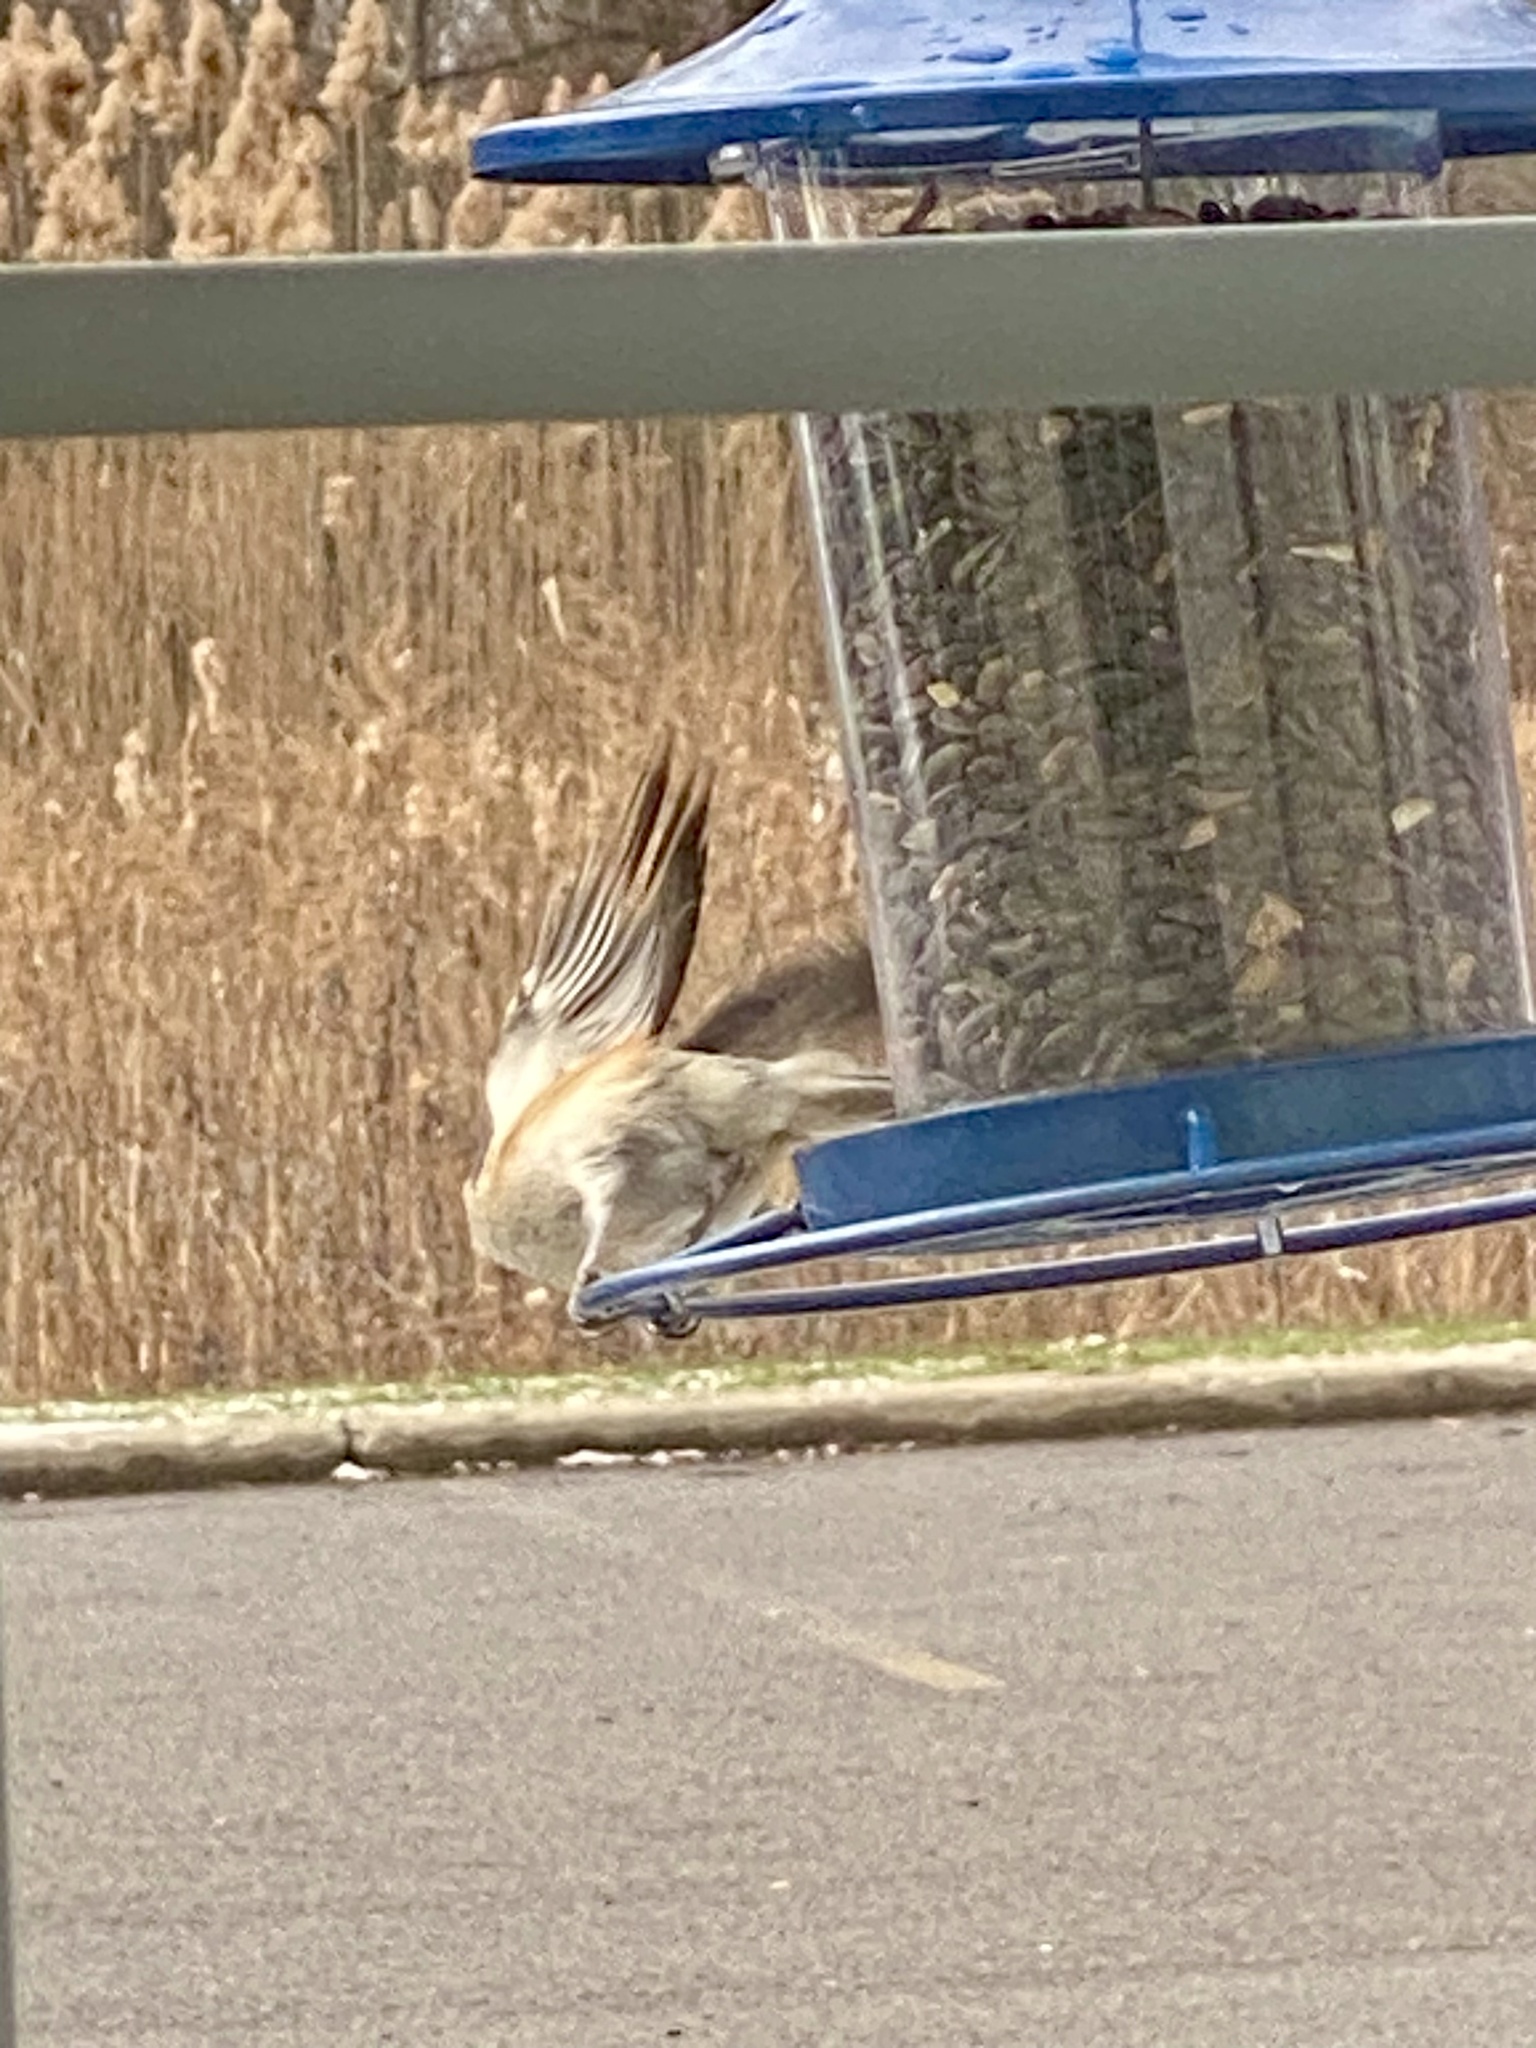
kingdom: Animalia
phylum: Chordata
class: Aves
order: Passeriformes
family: Paridae
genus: Baeolophus
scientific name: Baeolophus bicolor
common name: Tufted titmouse
